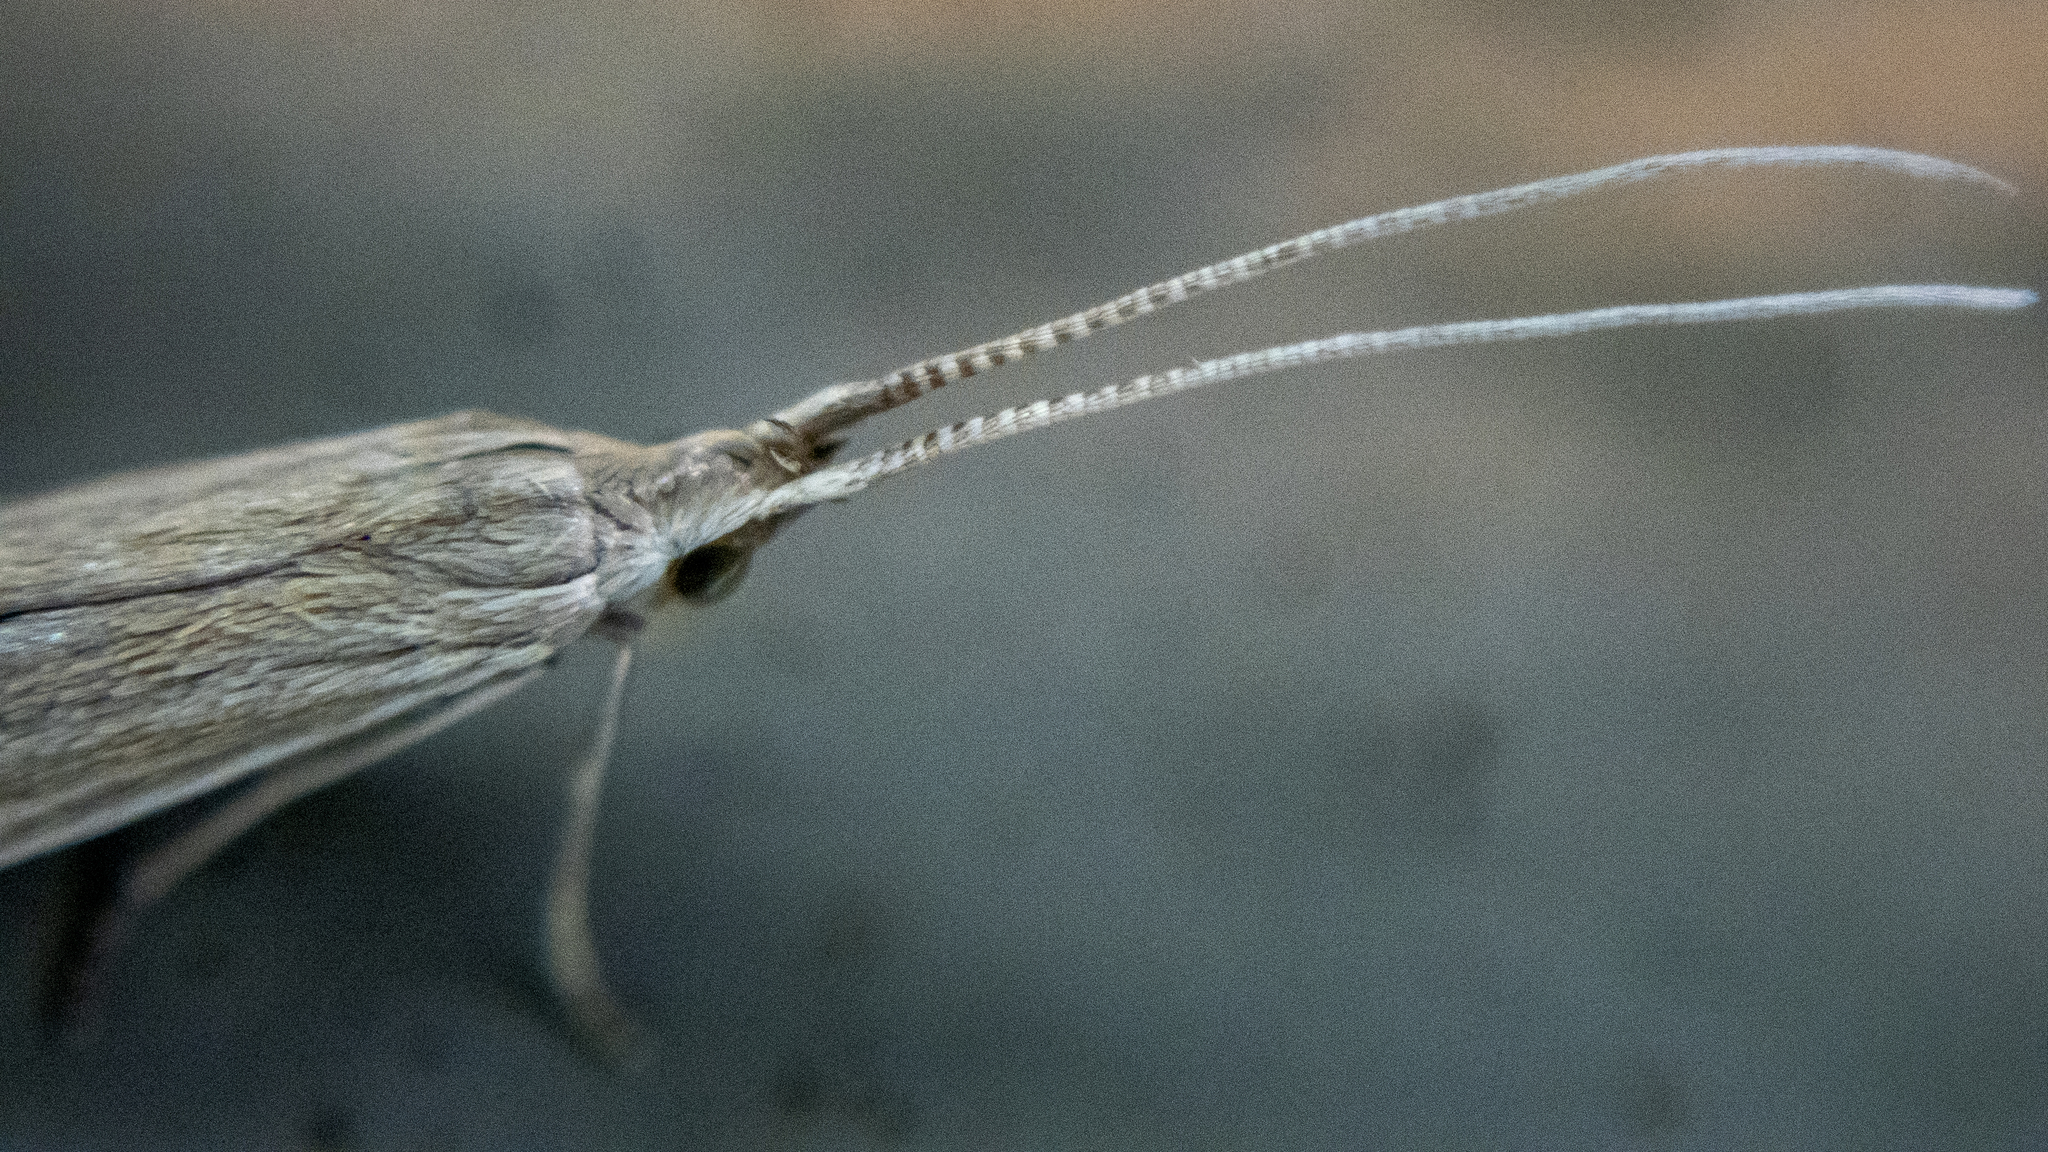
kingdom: Animalia
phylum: Arthropoda
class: Insecta
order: Lepidoptera
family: Coleophoridae
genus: Coleophora
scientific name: Coleophora
